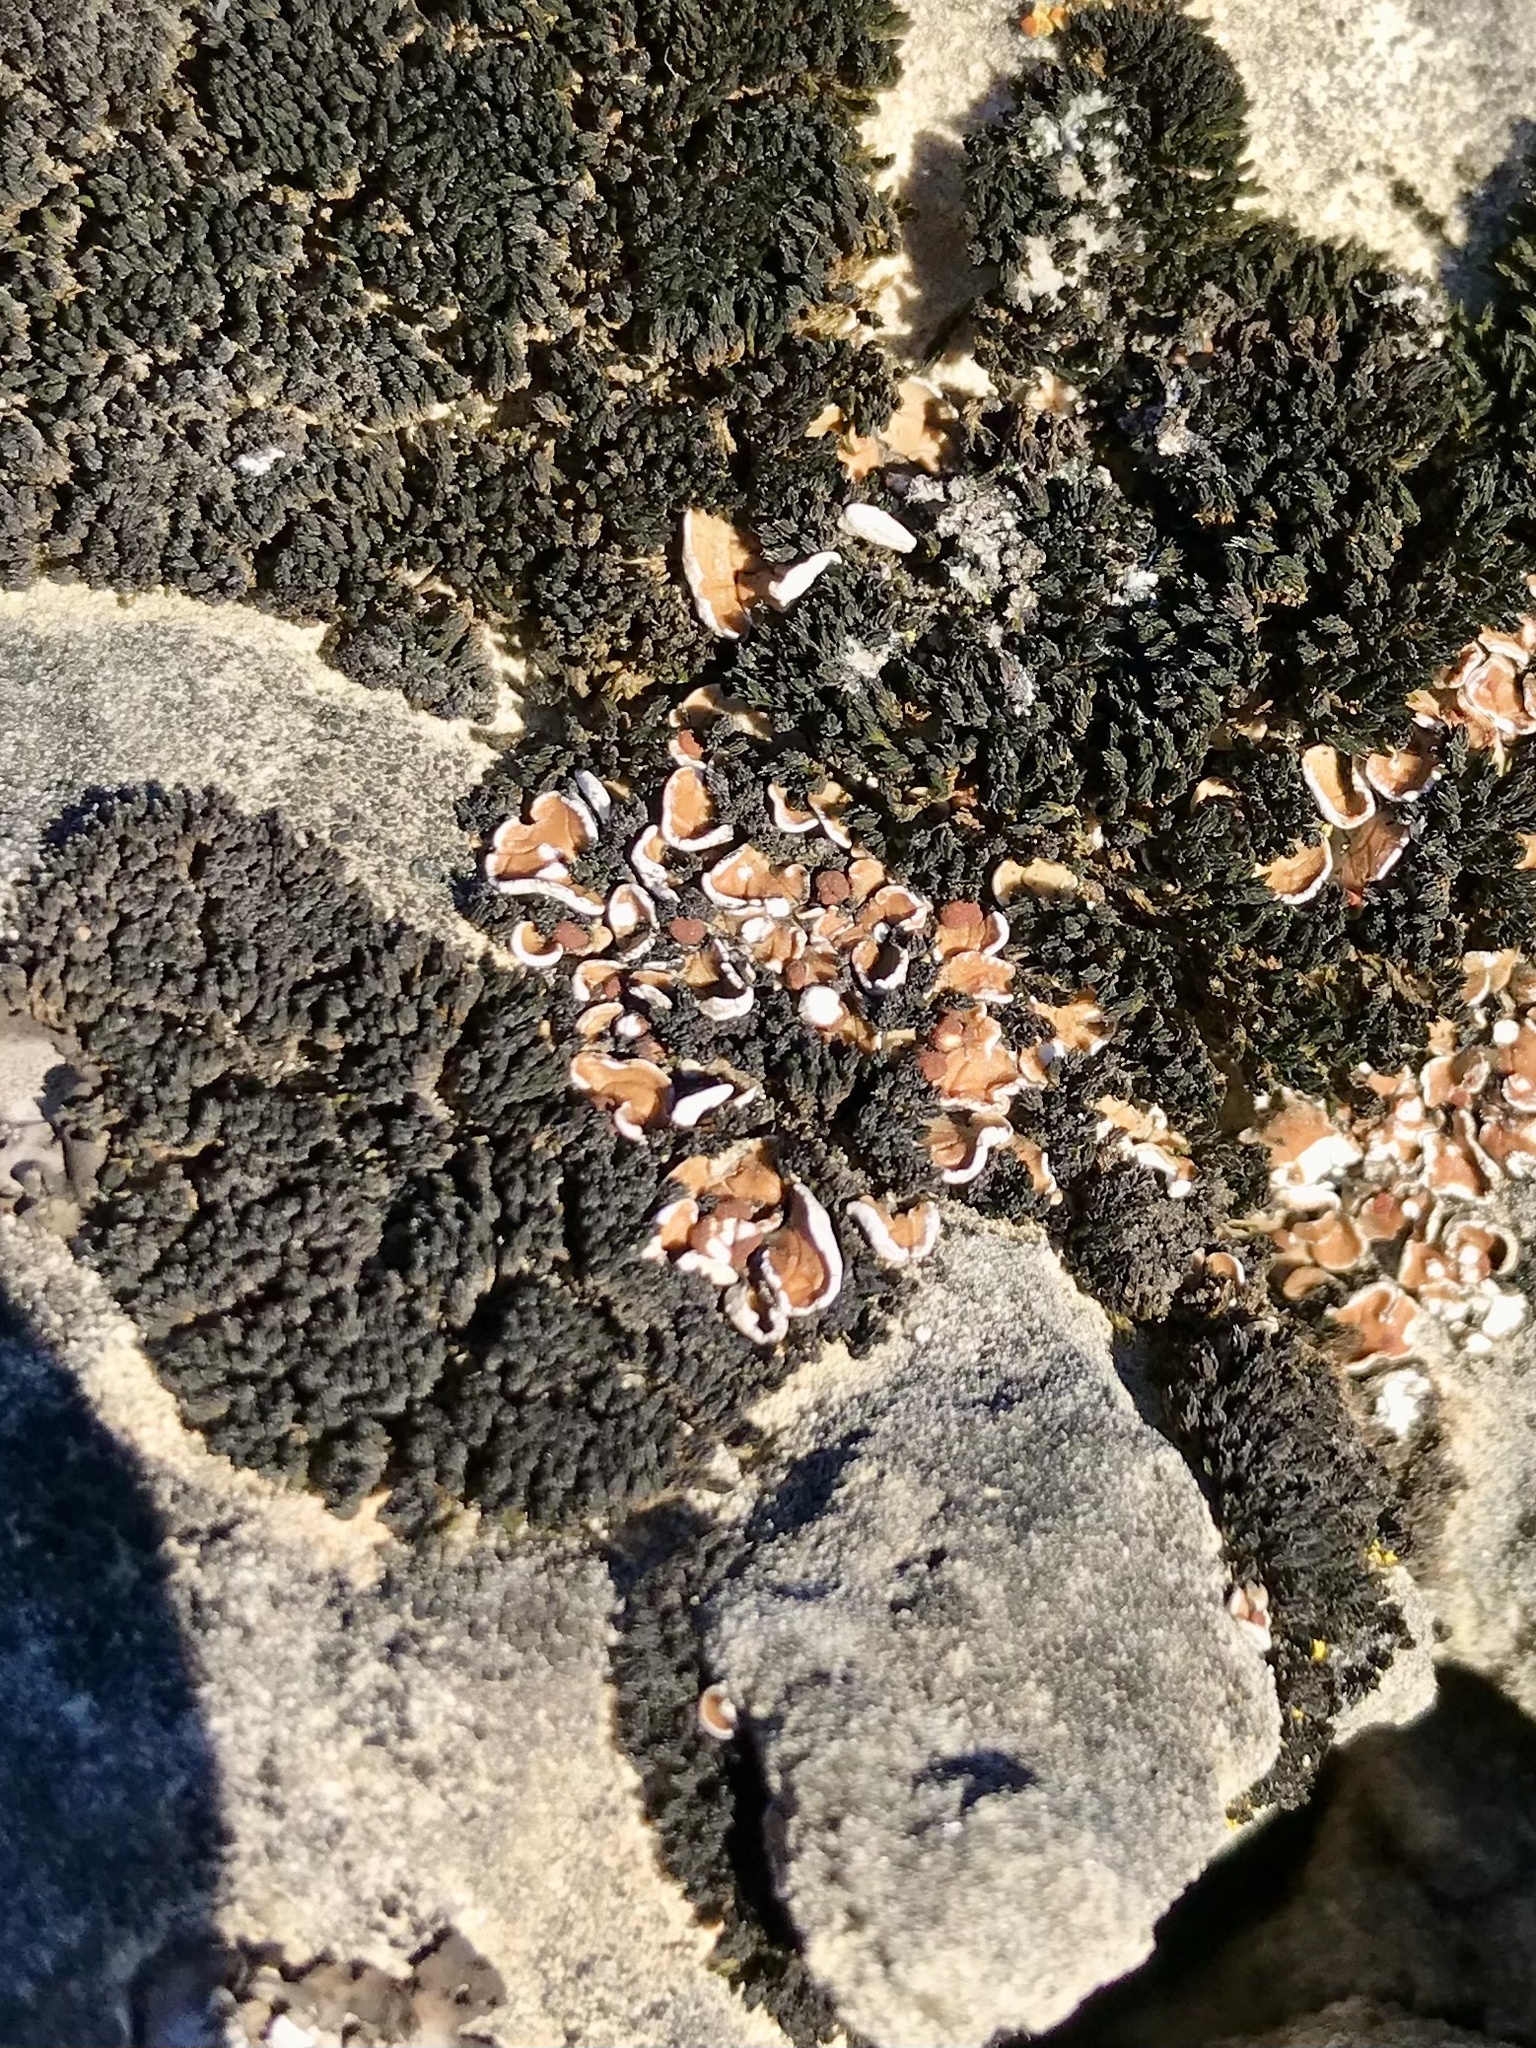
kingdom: Fungi
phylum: Ascomycota
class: Lecanoromycetes
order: Lecanorales
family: Psoraceae
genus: Psora
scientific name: Psora pseudorussellii
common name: Bordered scale lichen
